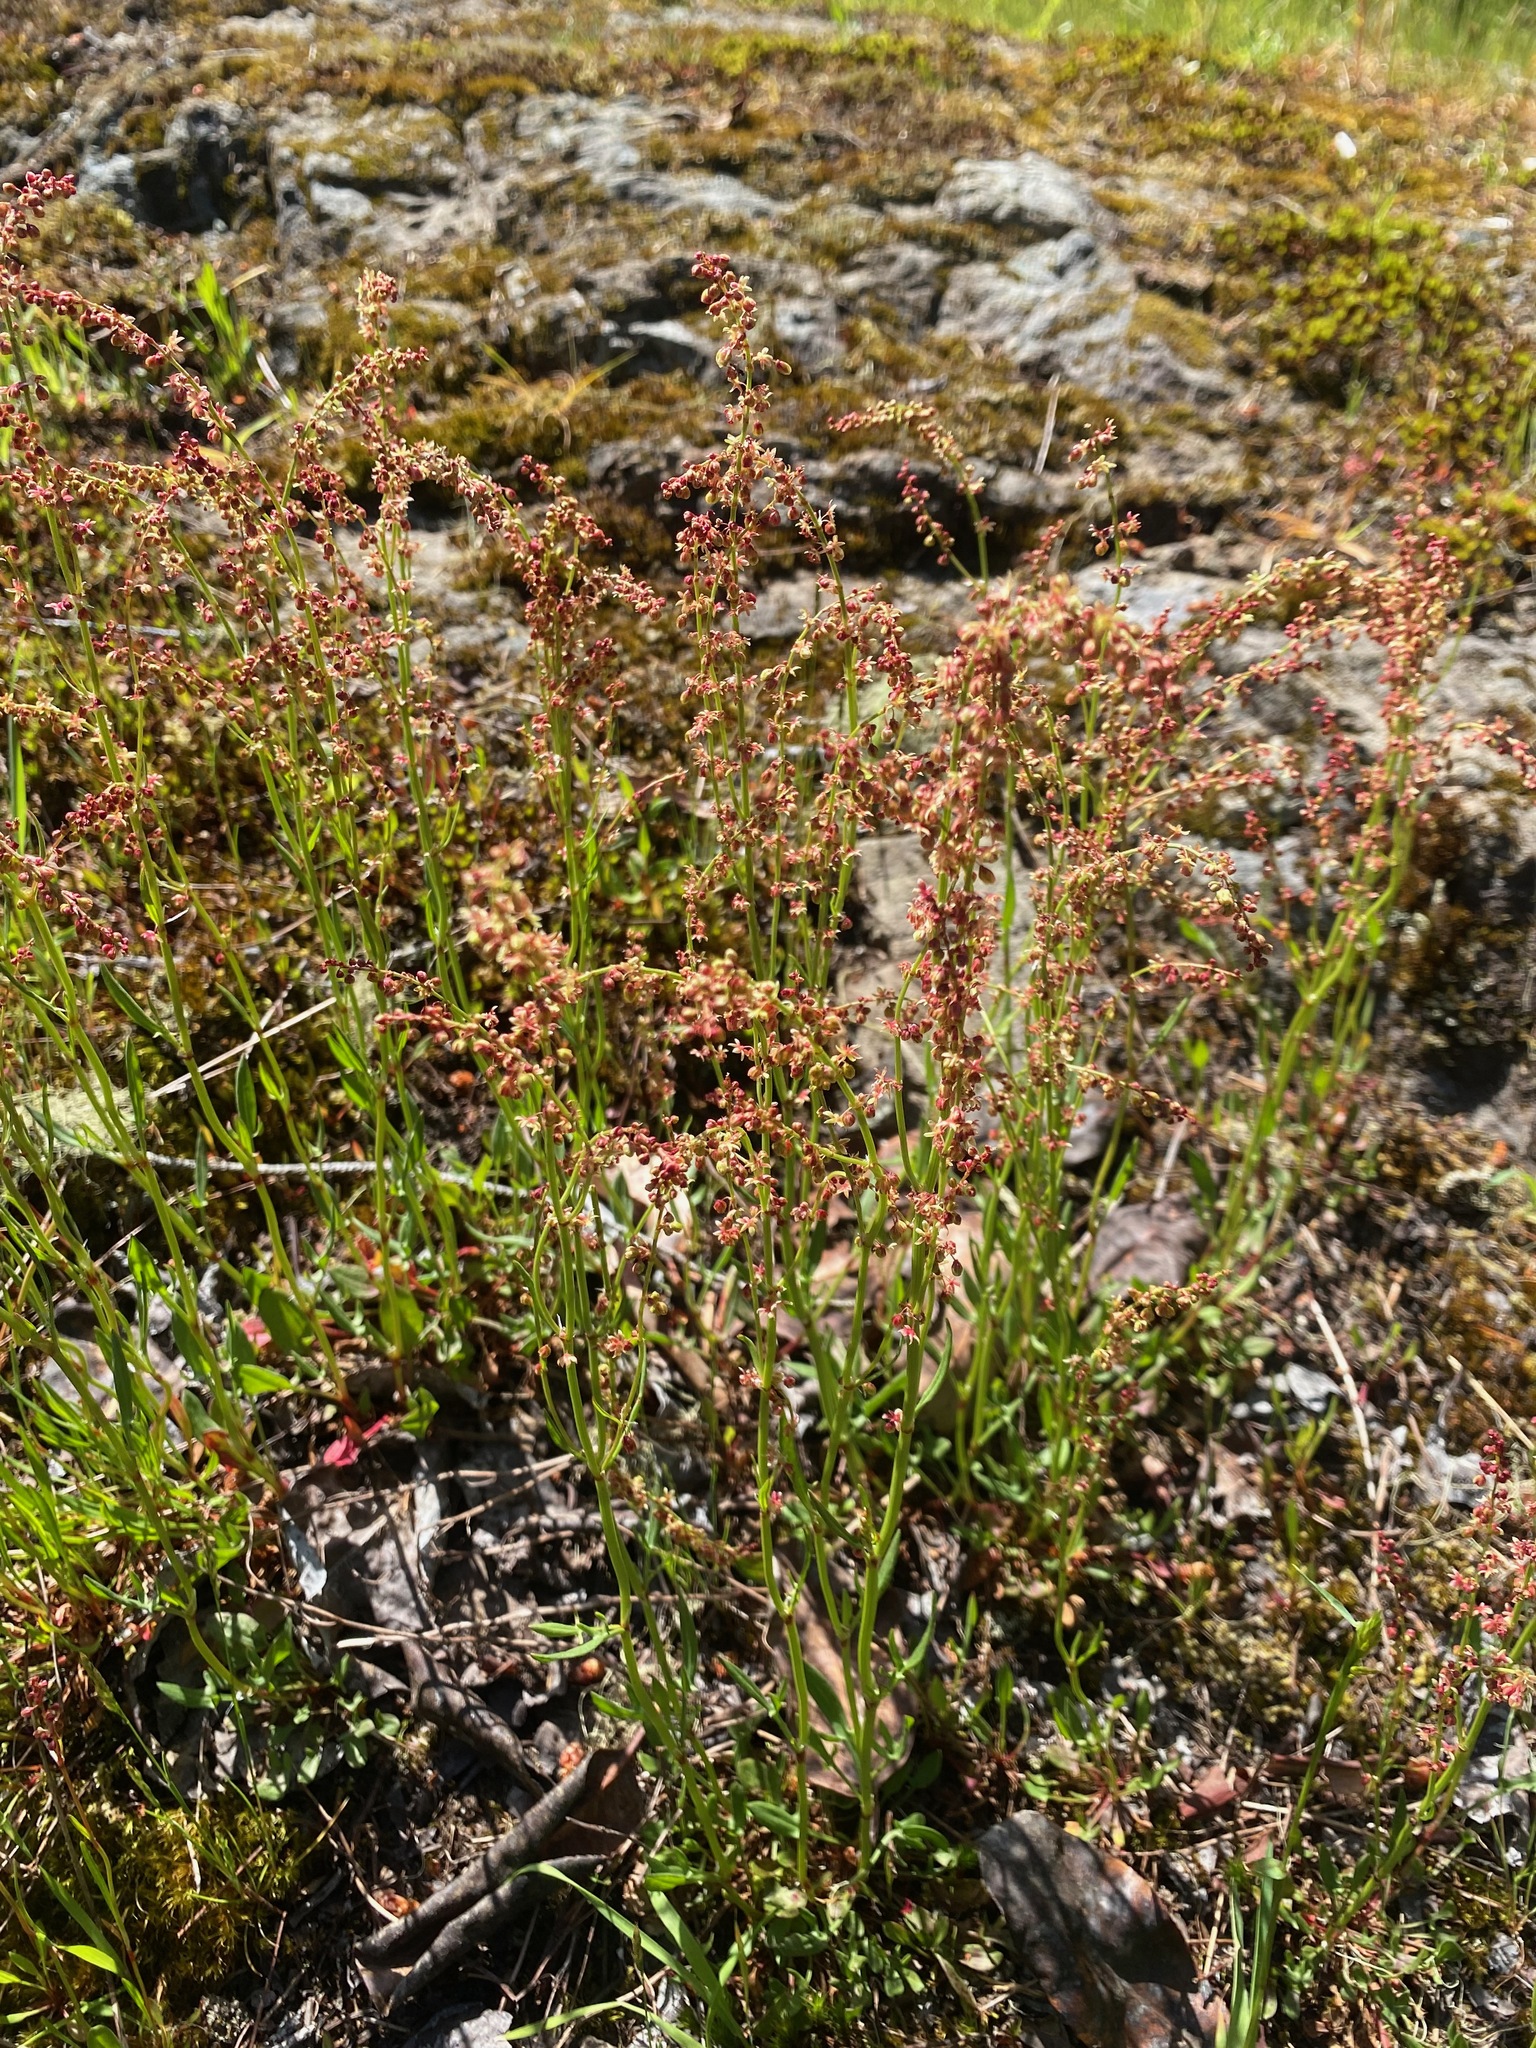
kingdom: Plantae
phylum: Tracheophyta
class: Magnoliopsida
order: Caryophyllales
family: Polygonaceae
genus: Rumex
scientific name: Rumex acetosella
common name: Common sheep sorrel
